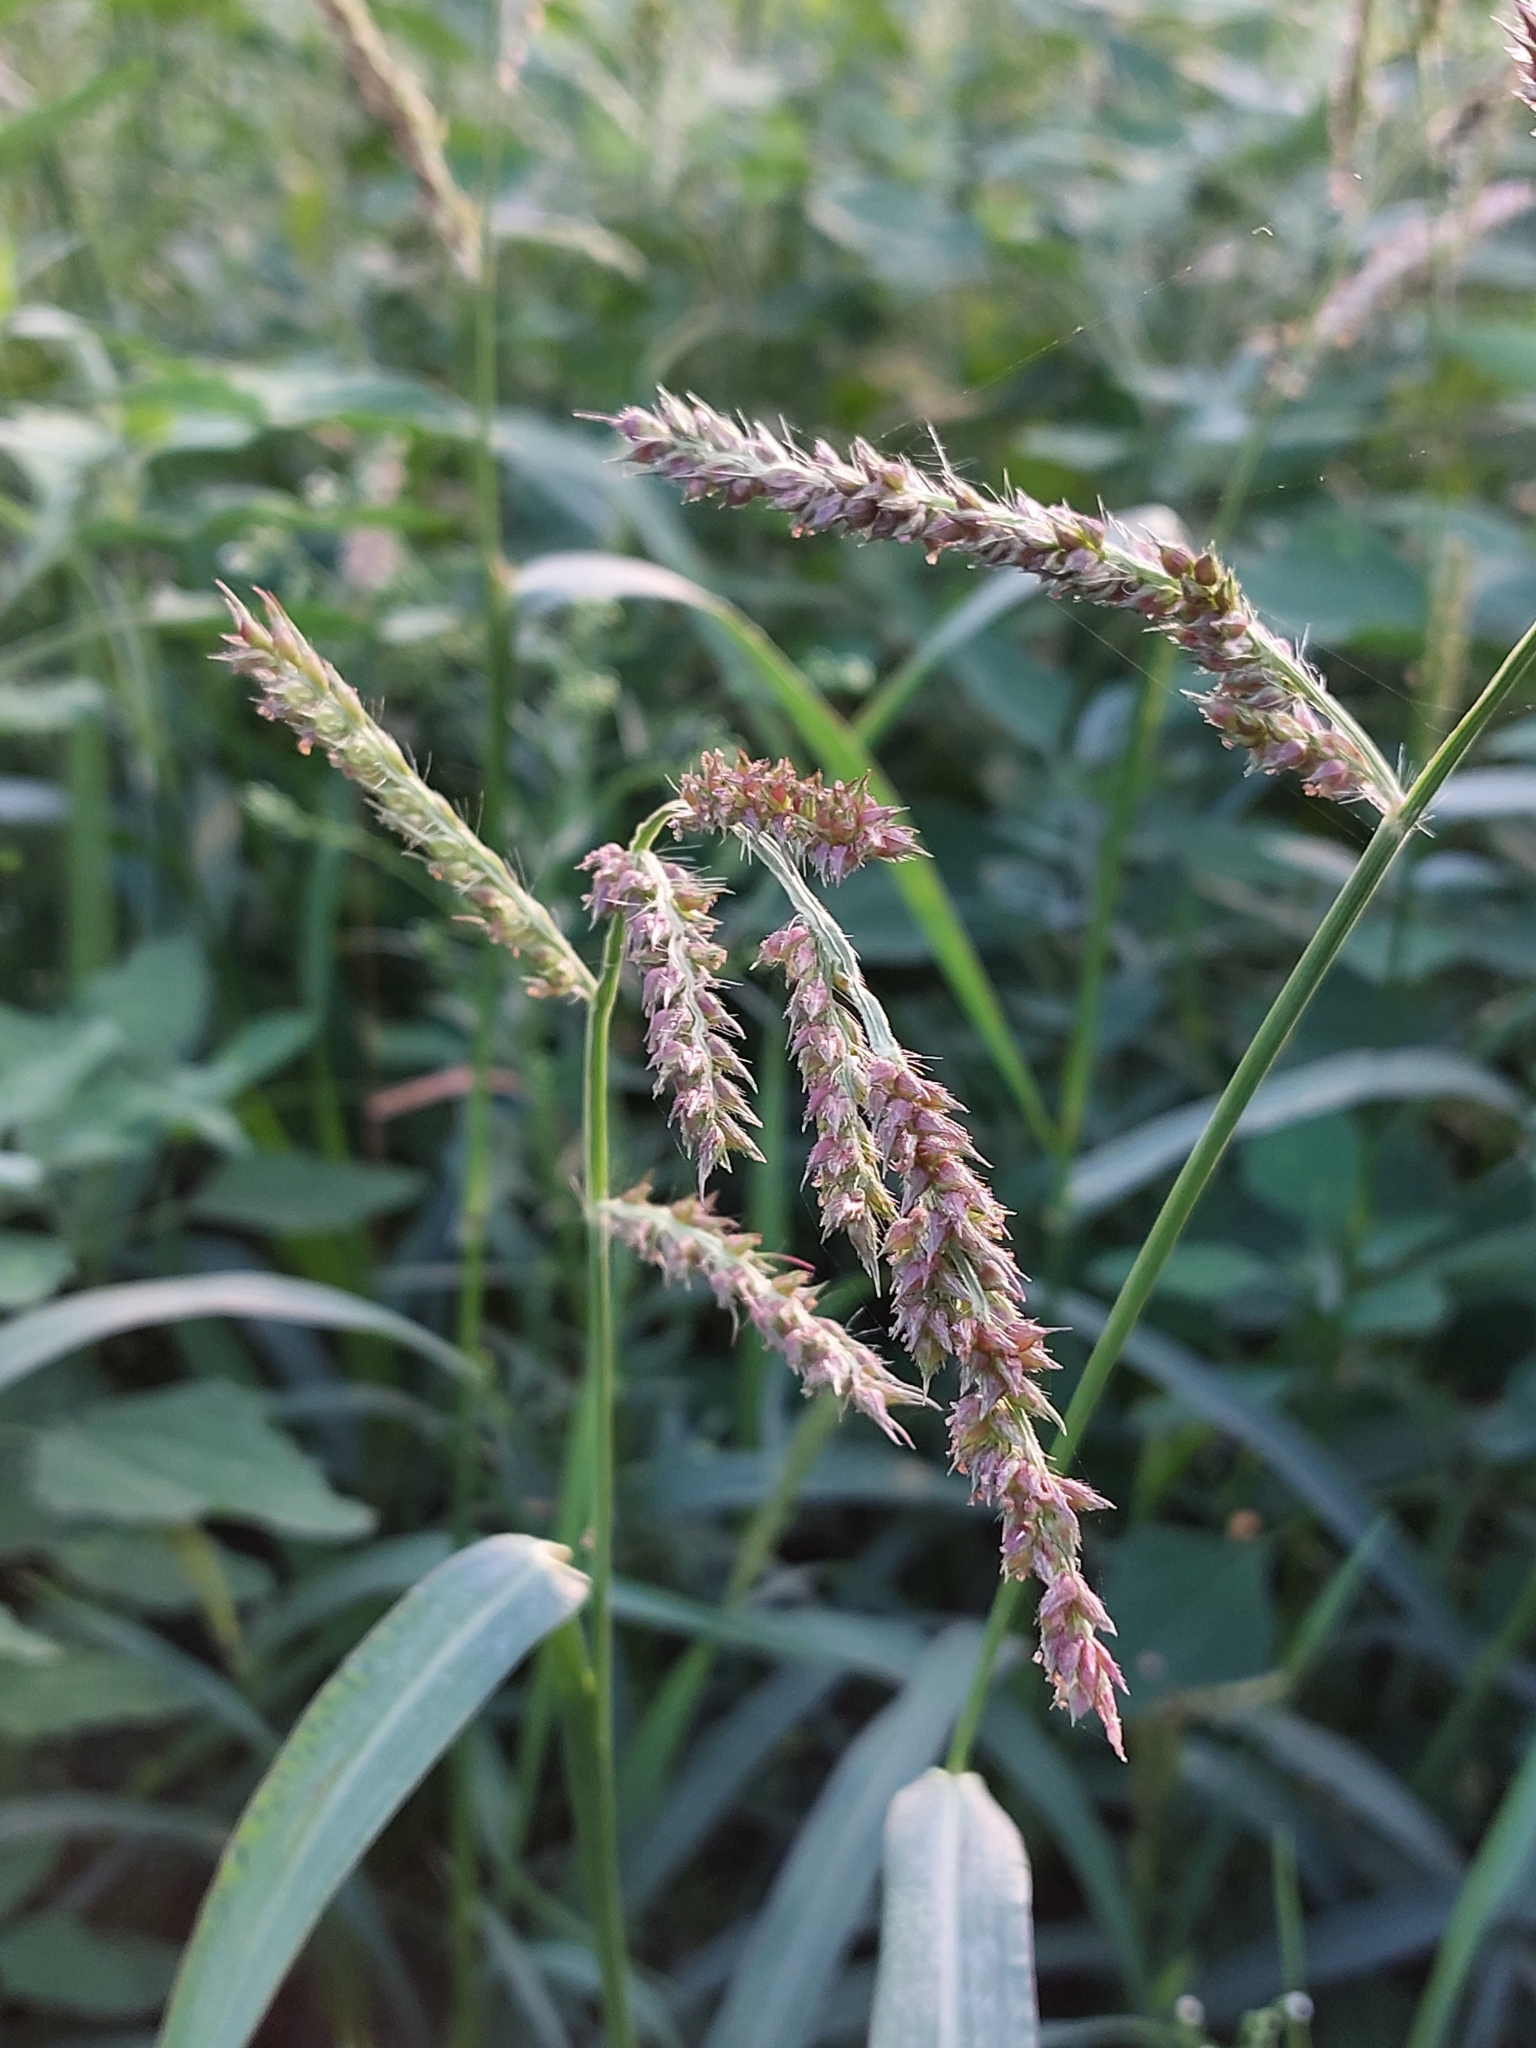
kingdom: Plantae
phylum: Tracheophyta
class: Liliopsida
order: Poales
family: Poaceae
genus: Echinochloa
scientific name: Echinochloa crus-galli
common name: Cockspur
